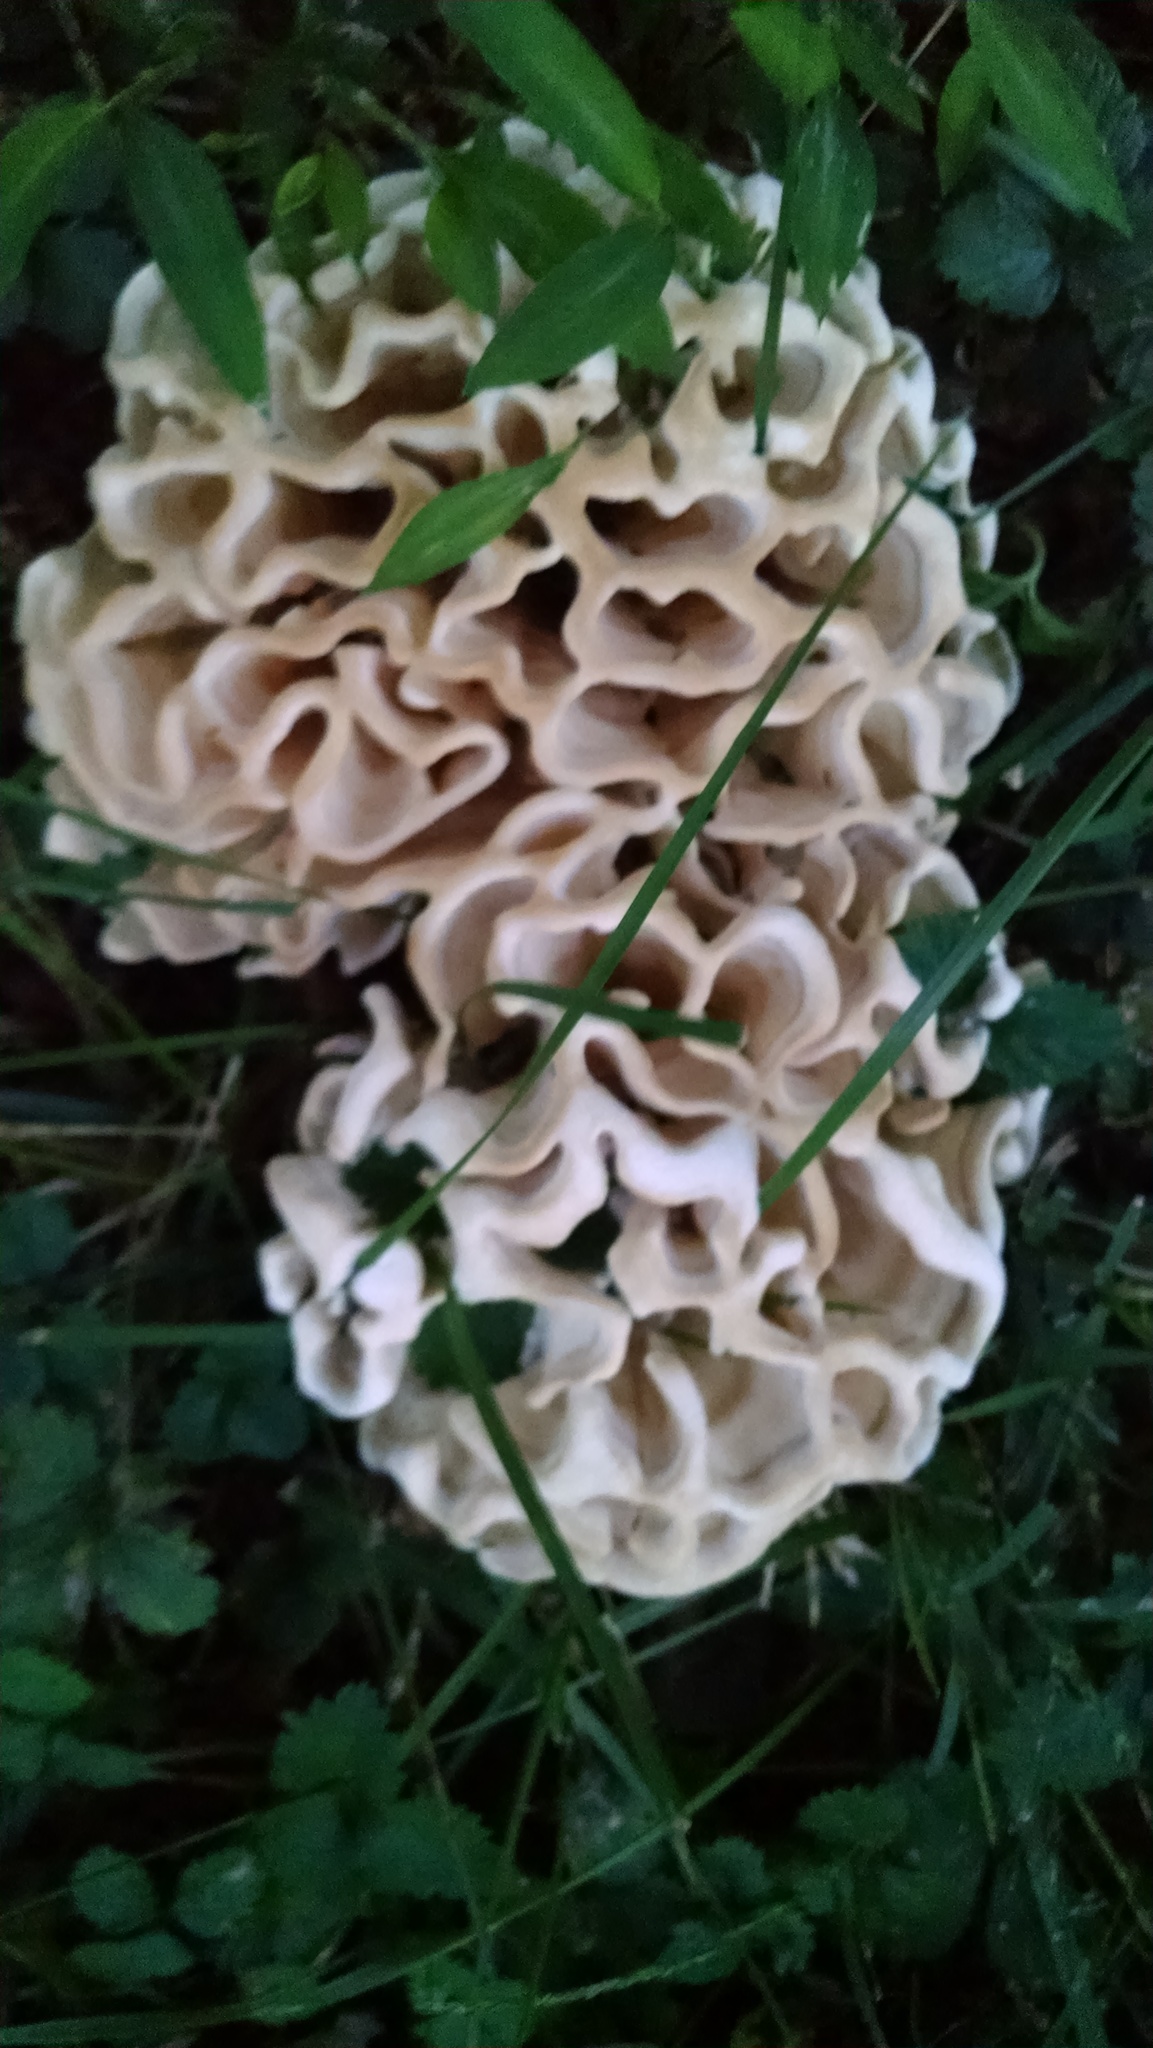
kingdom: Fungi
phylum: Basidiomycota
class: Agaricomycetes
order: Polyporales
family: Sparassidaceae
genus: Sparassis
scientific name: Sparassis spathulata
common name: Eastern cauliflower mushroom
